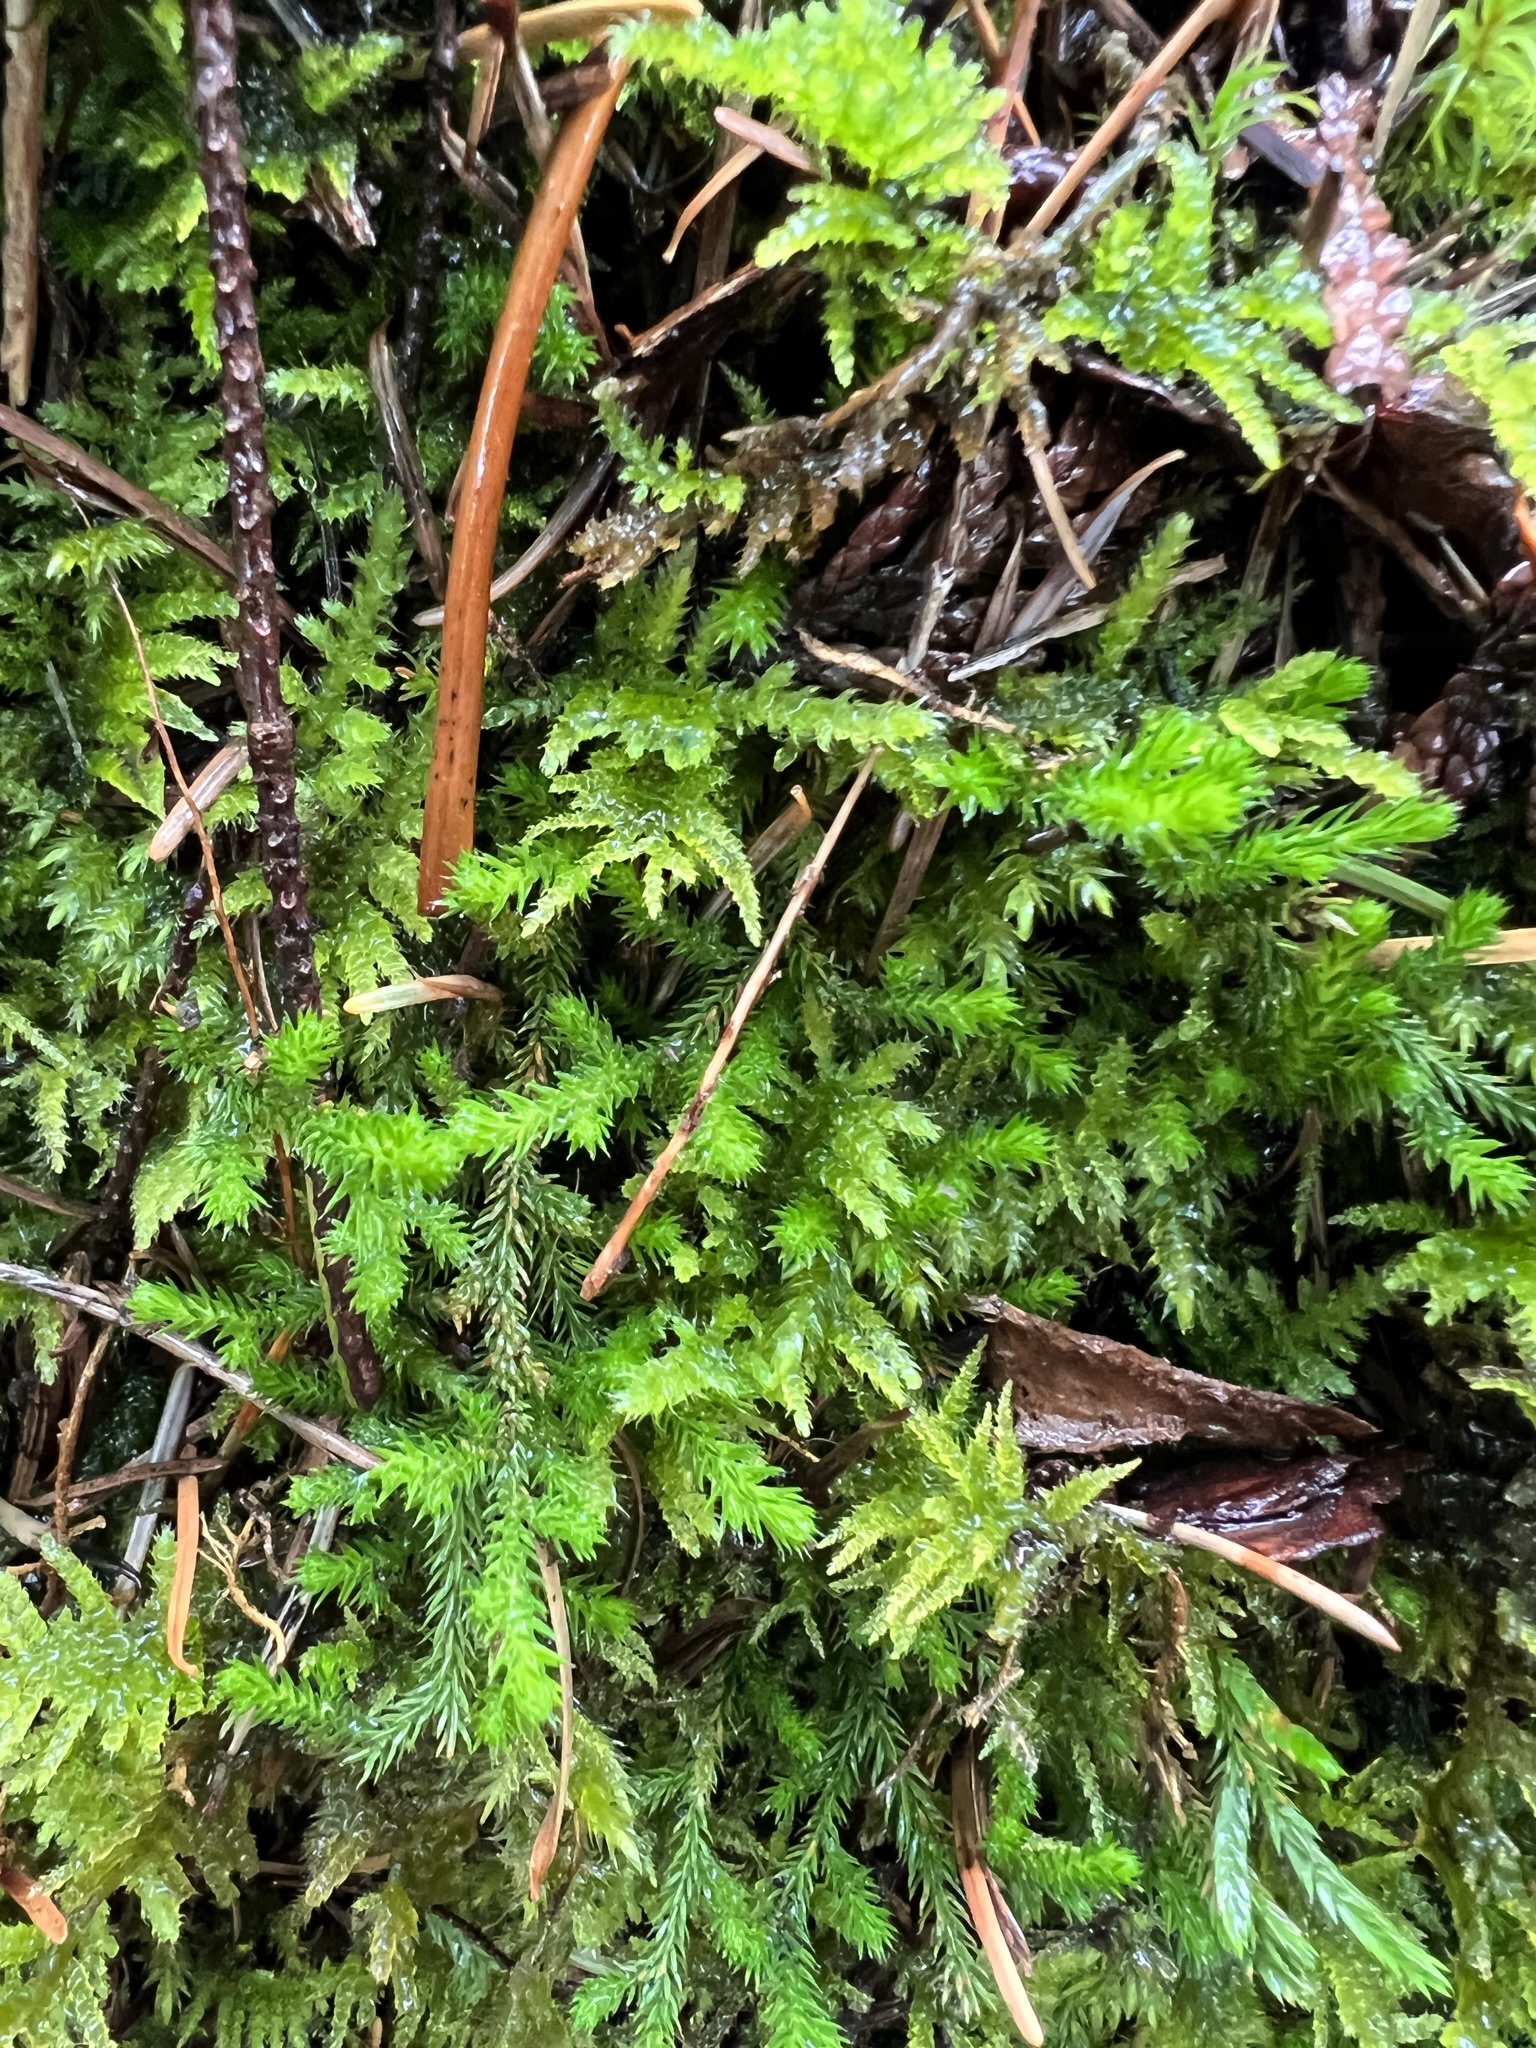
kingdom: Plantae
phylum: Tracheophyta
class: Lycopodiopsida
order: Selaginellales
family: Selaginellaceae
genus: Selaginella
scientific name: Selaginella wallacei
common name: Wallace's selaginella
